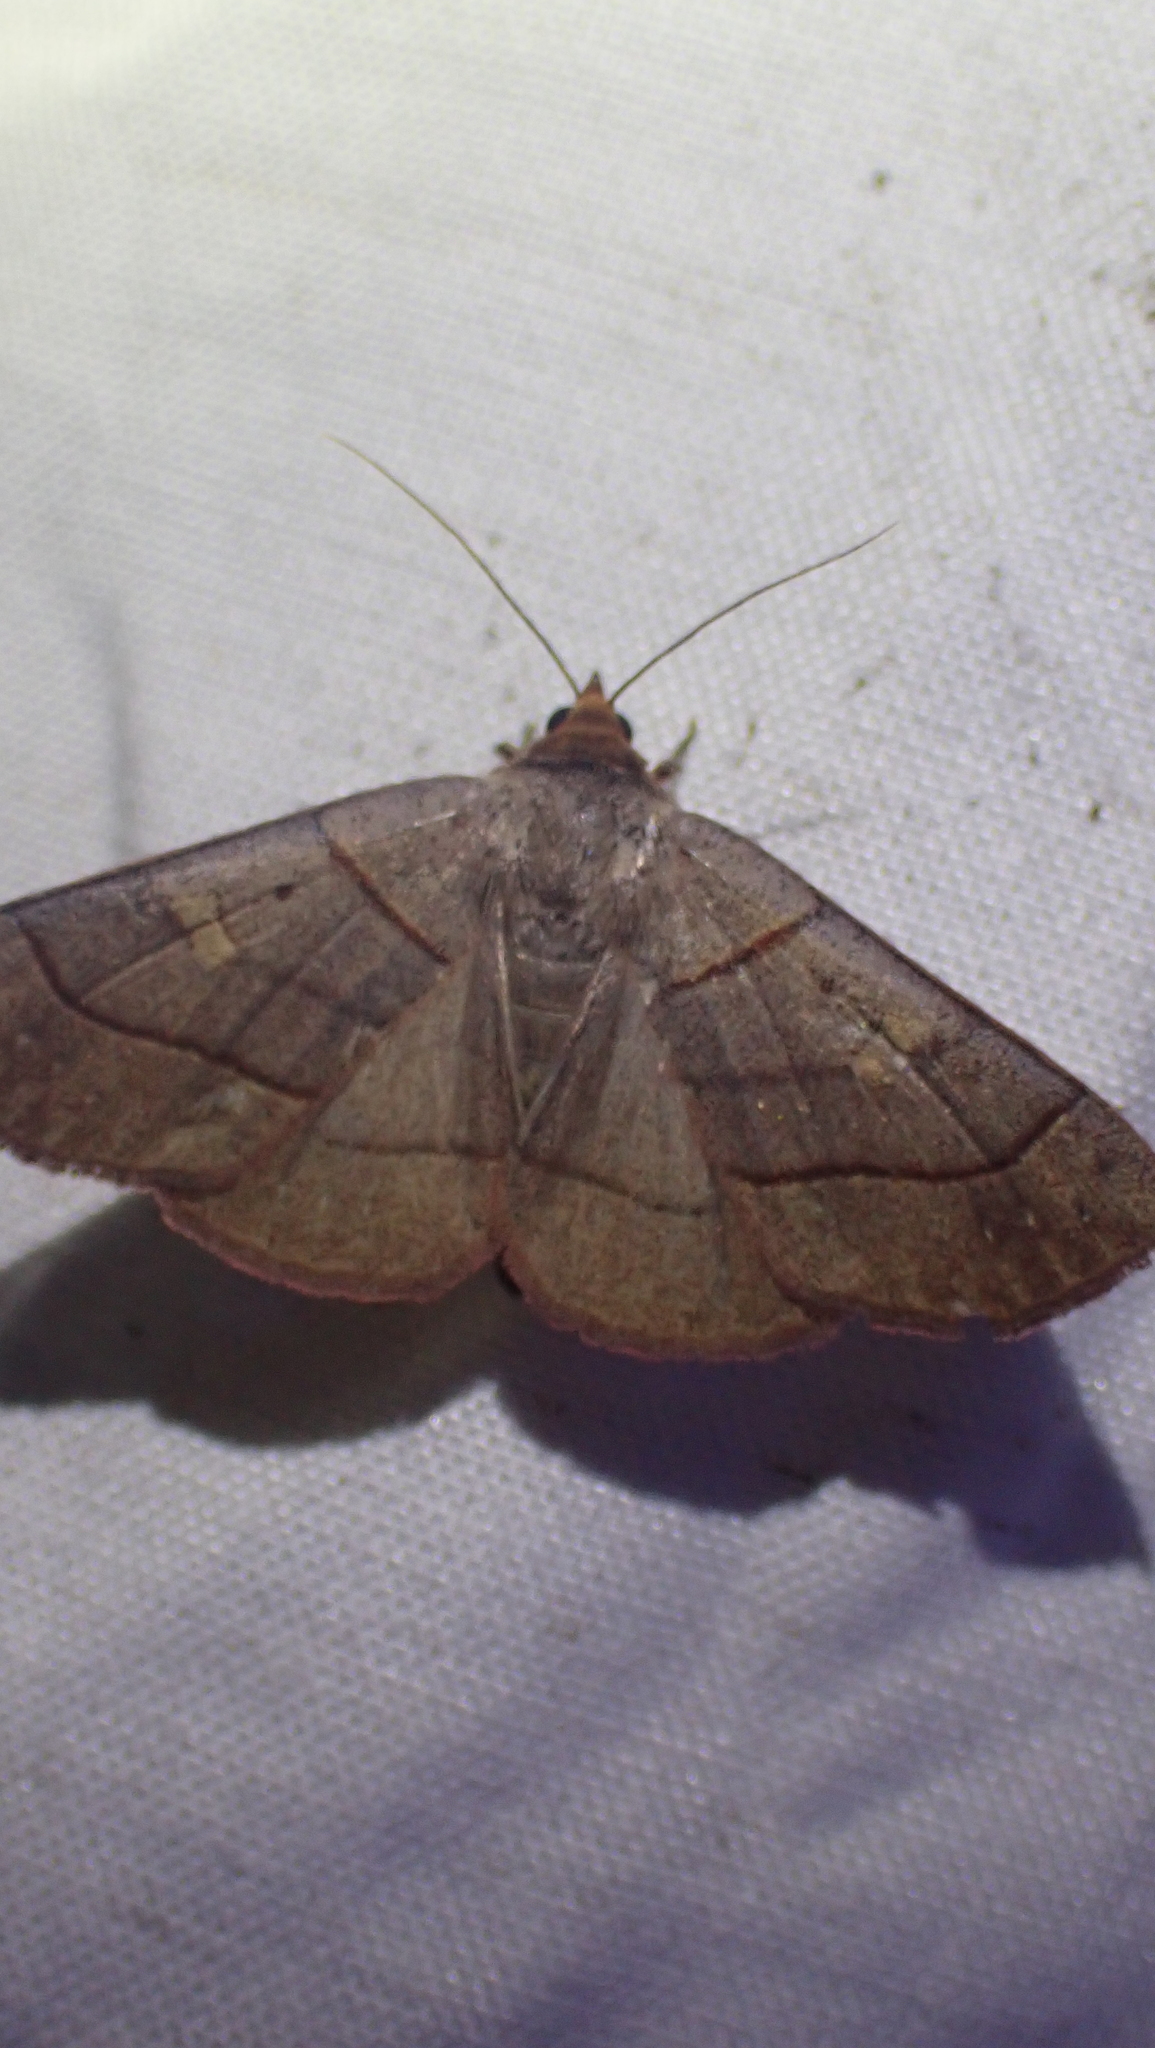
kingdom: Animalia
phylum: Arthropoda
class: Insecta
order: Lepidoptera
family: Erebidae
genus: Panopoda
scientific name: Panopoda rufimargo
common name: Red-lined panopoda moth
